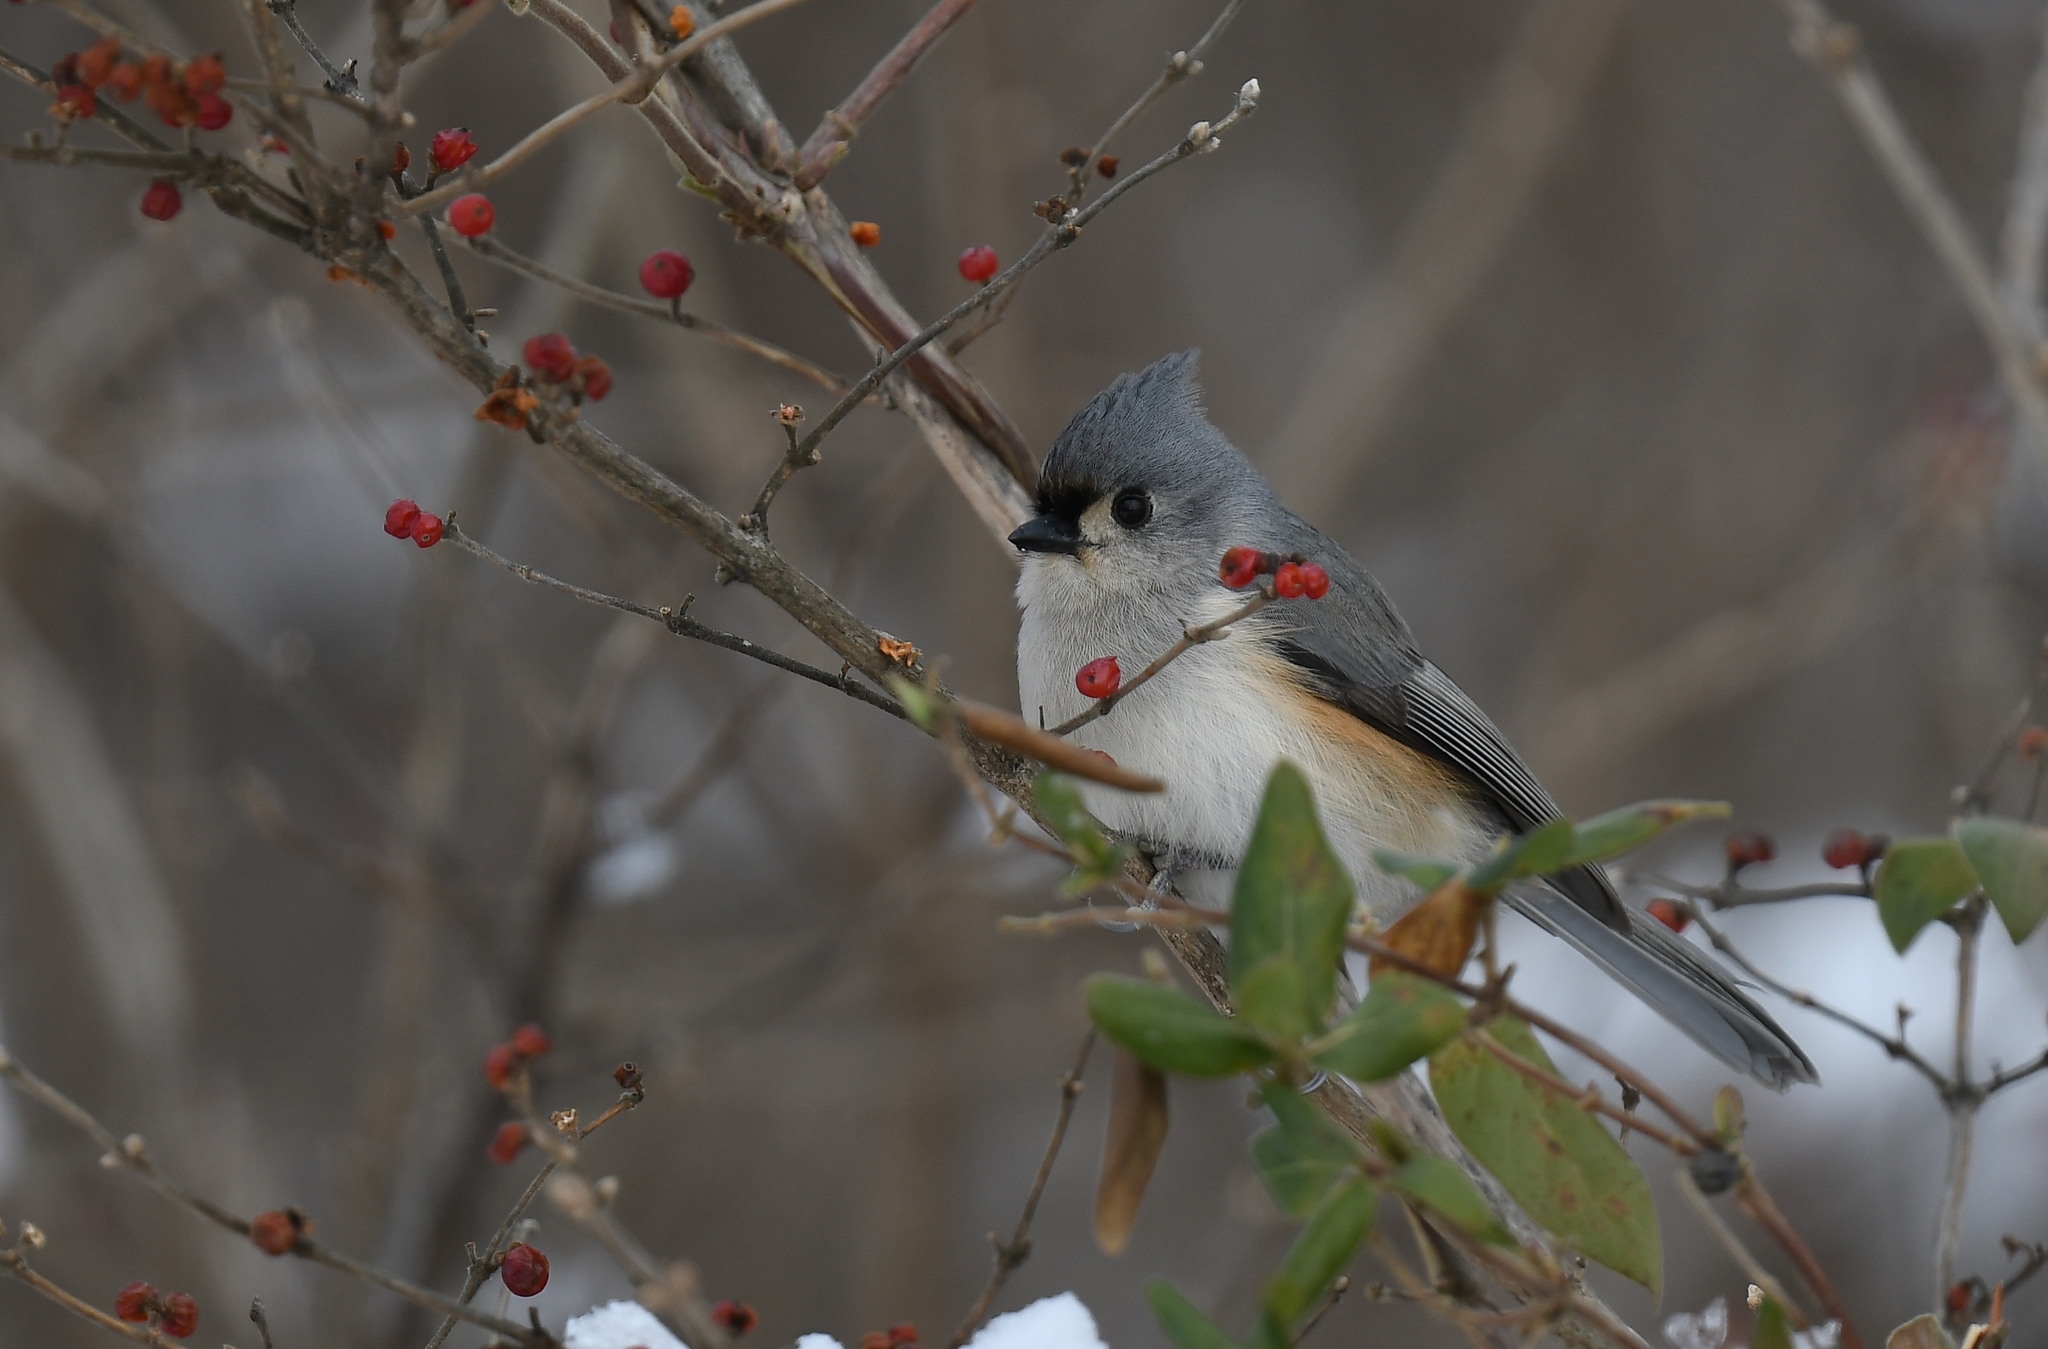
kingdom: Animalia
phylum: Chordata
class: Aves
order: Passeriformes
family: Paridae
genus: Baeolophus
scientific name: Baeolophus bicolor
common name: Tufted titmouse
